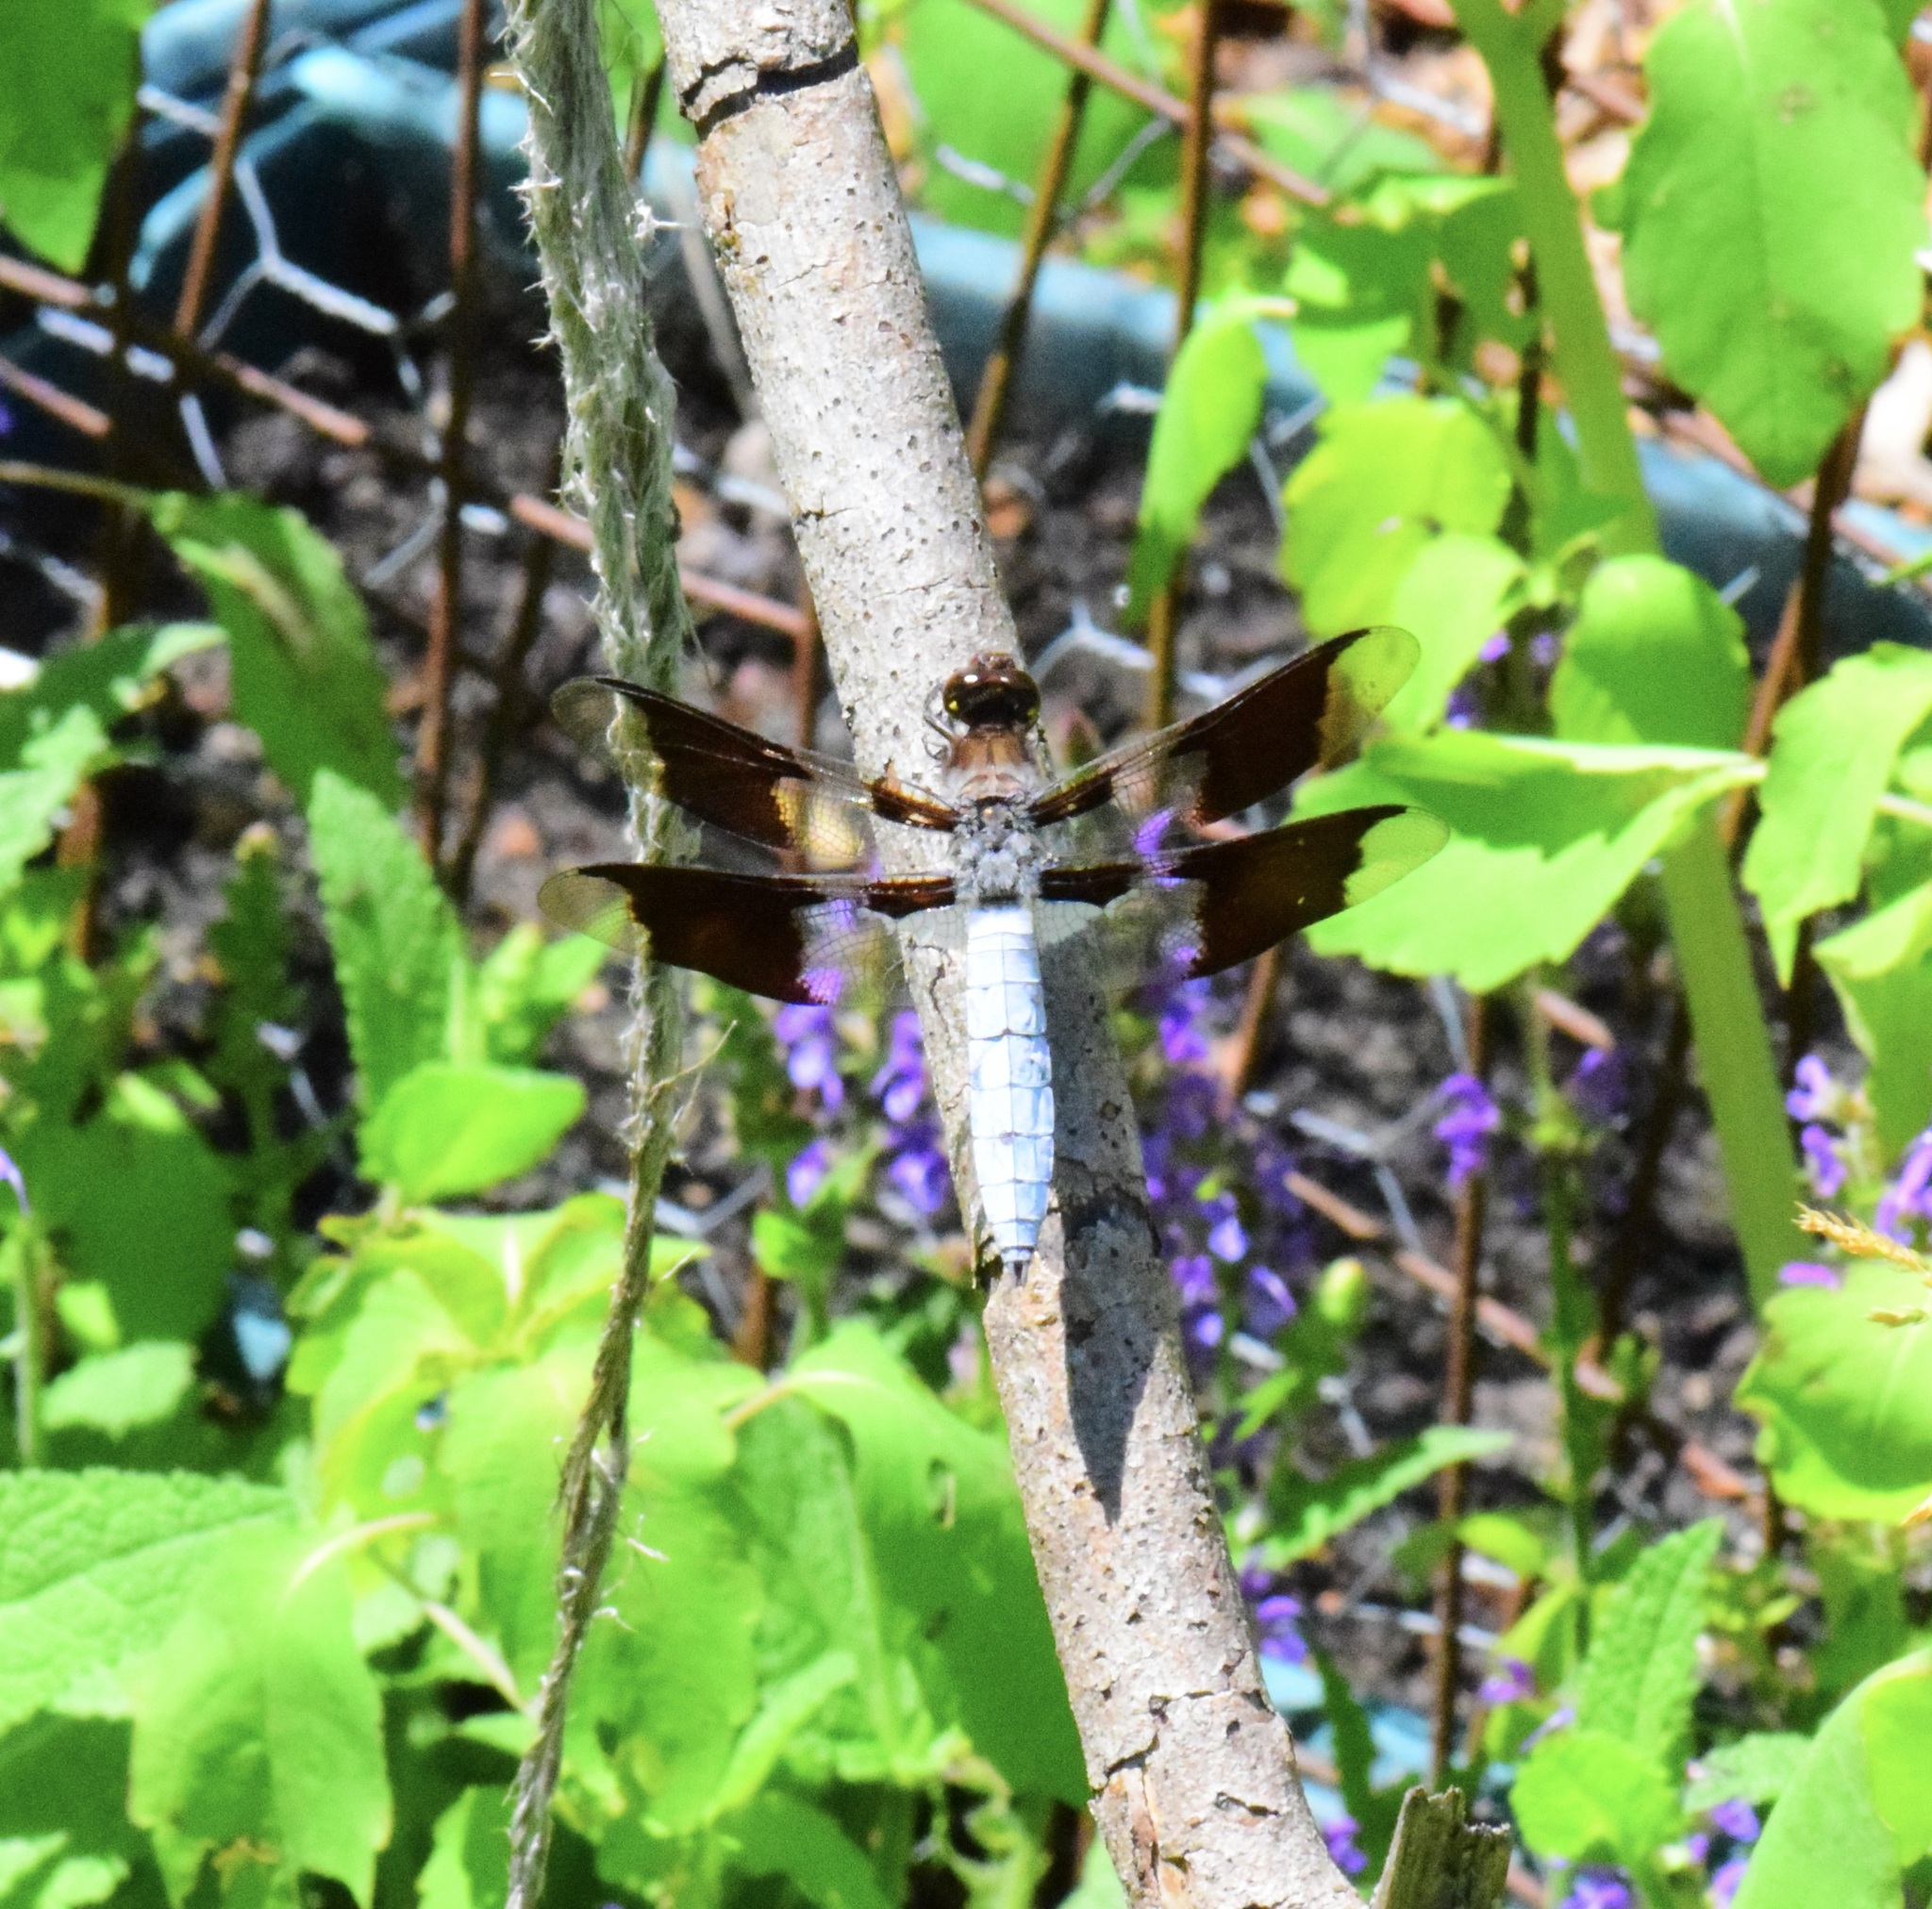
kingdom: Animalia
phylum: Arthropoda
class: Insecta
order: Odonata
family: Libellulidae
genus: Plathemis
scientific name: Plathemis lydia
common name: Common whitetail
